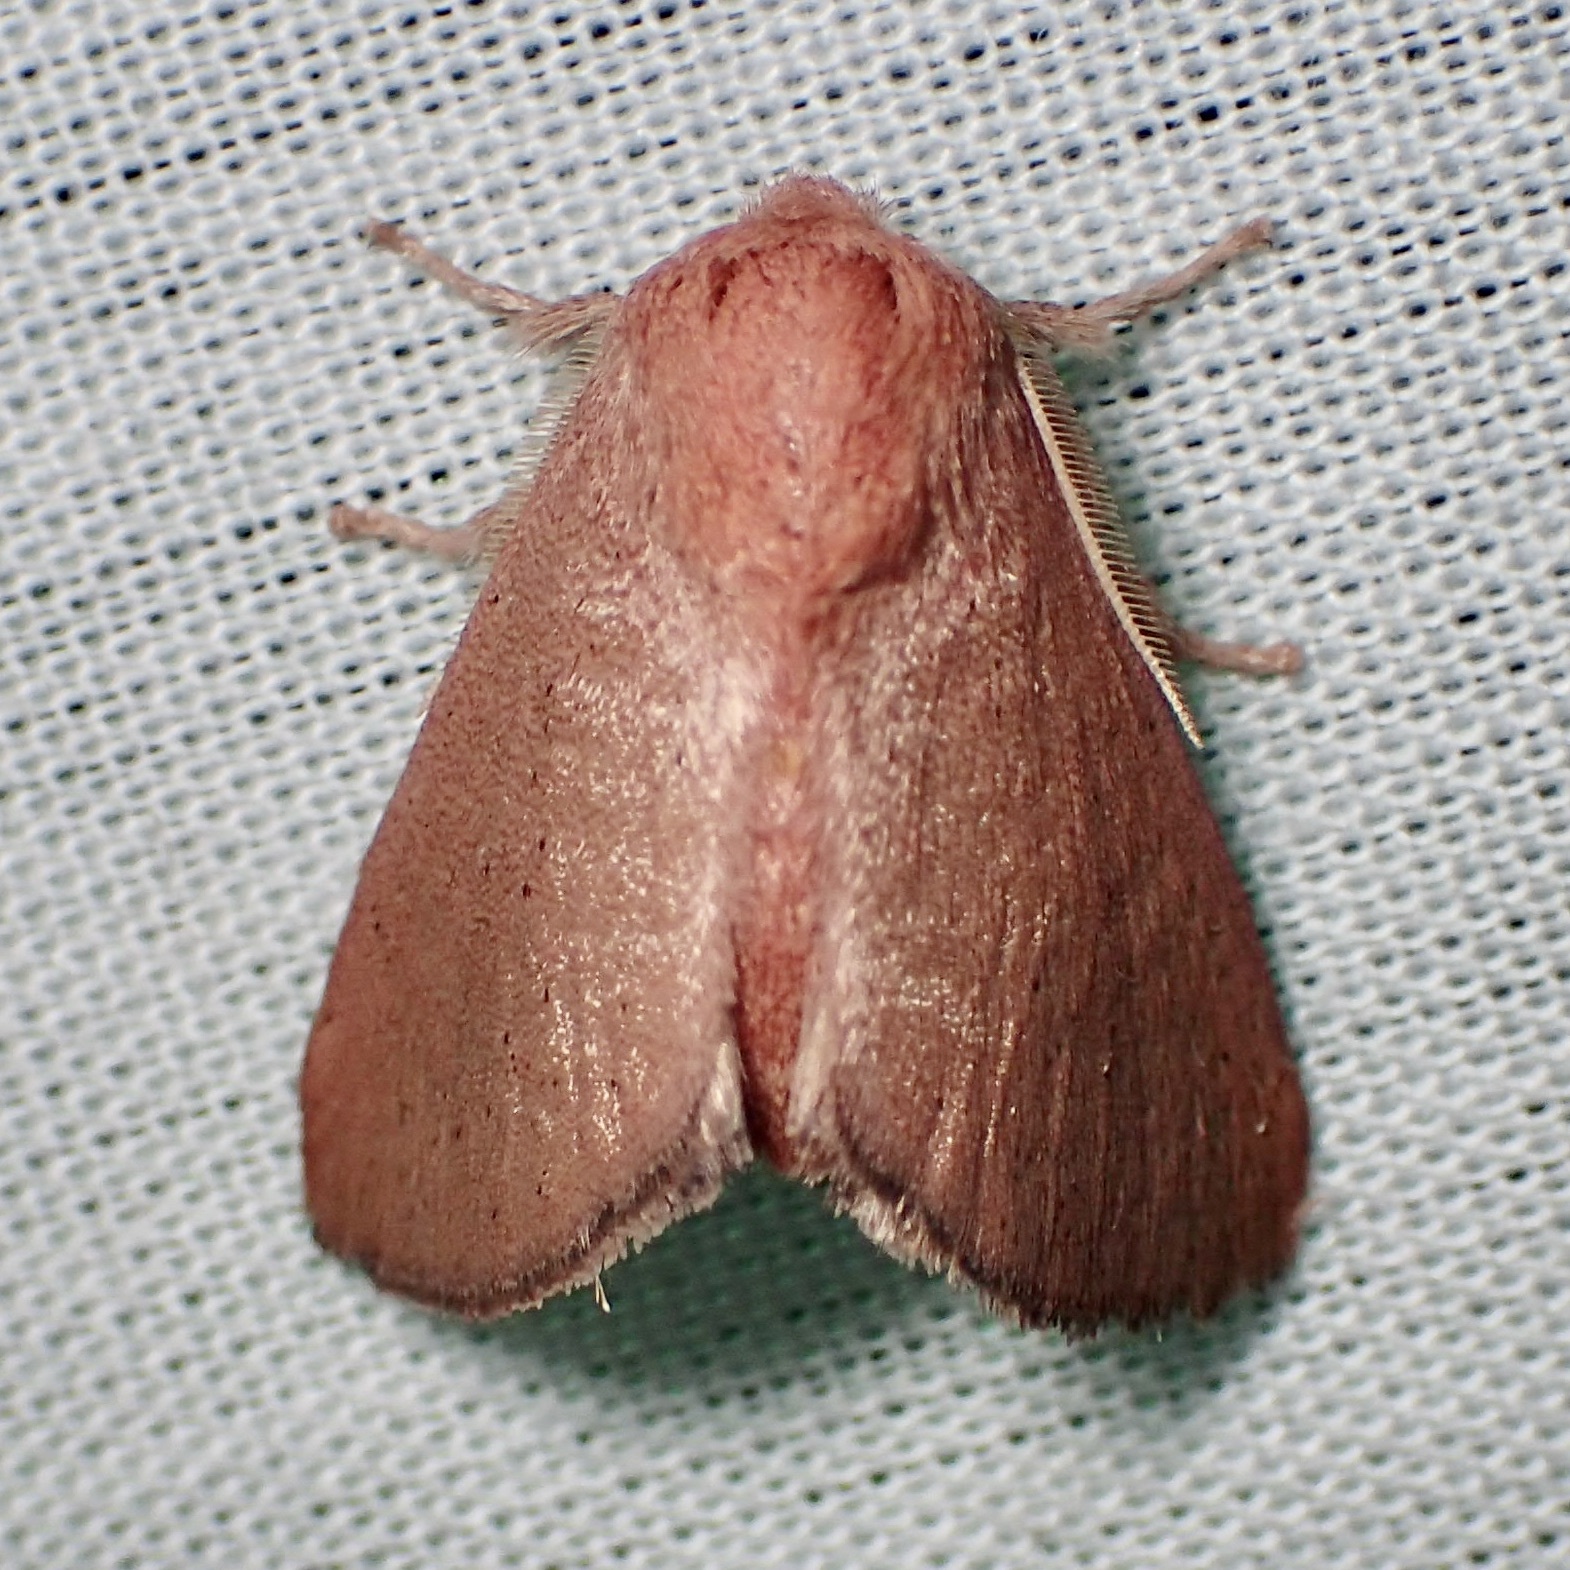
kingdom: Animalia
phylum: Arthropoda
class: Insecta
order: Lepidoptera
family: Limacodidae
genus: Isa
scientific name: Isa schaefferana
